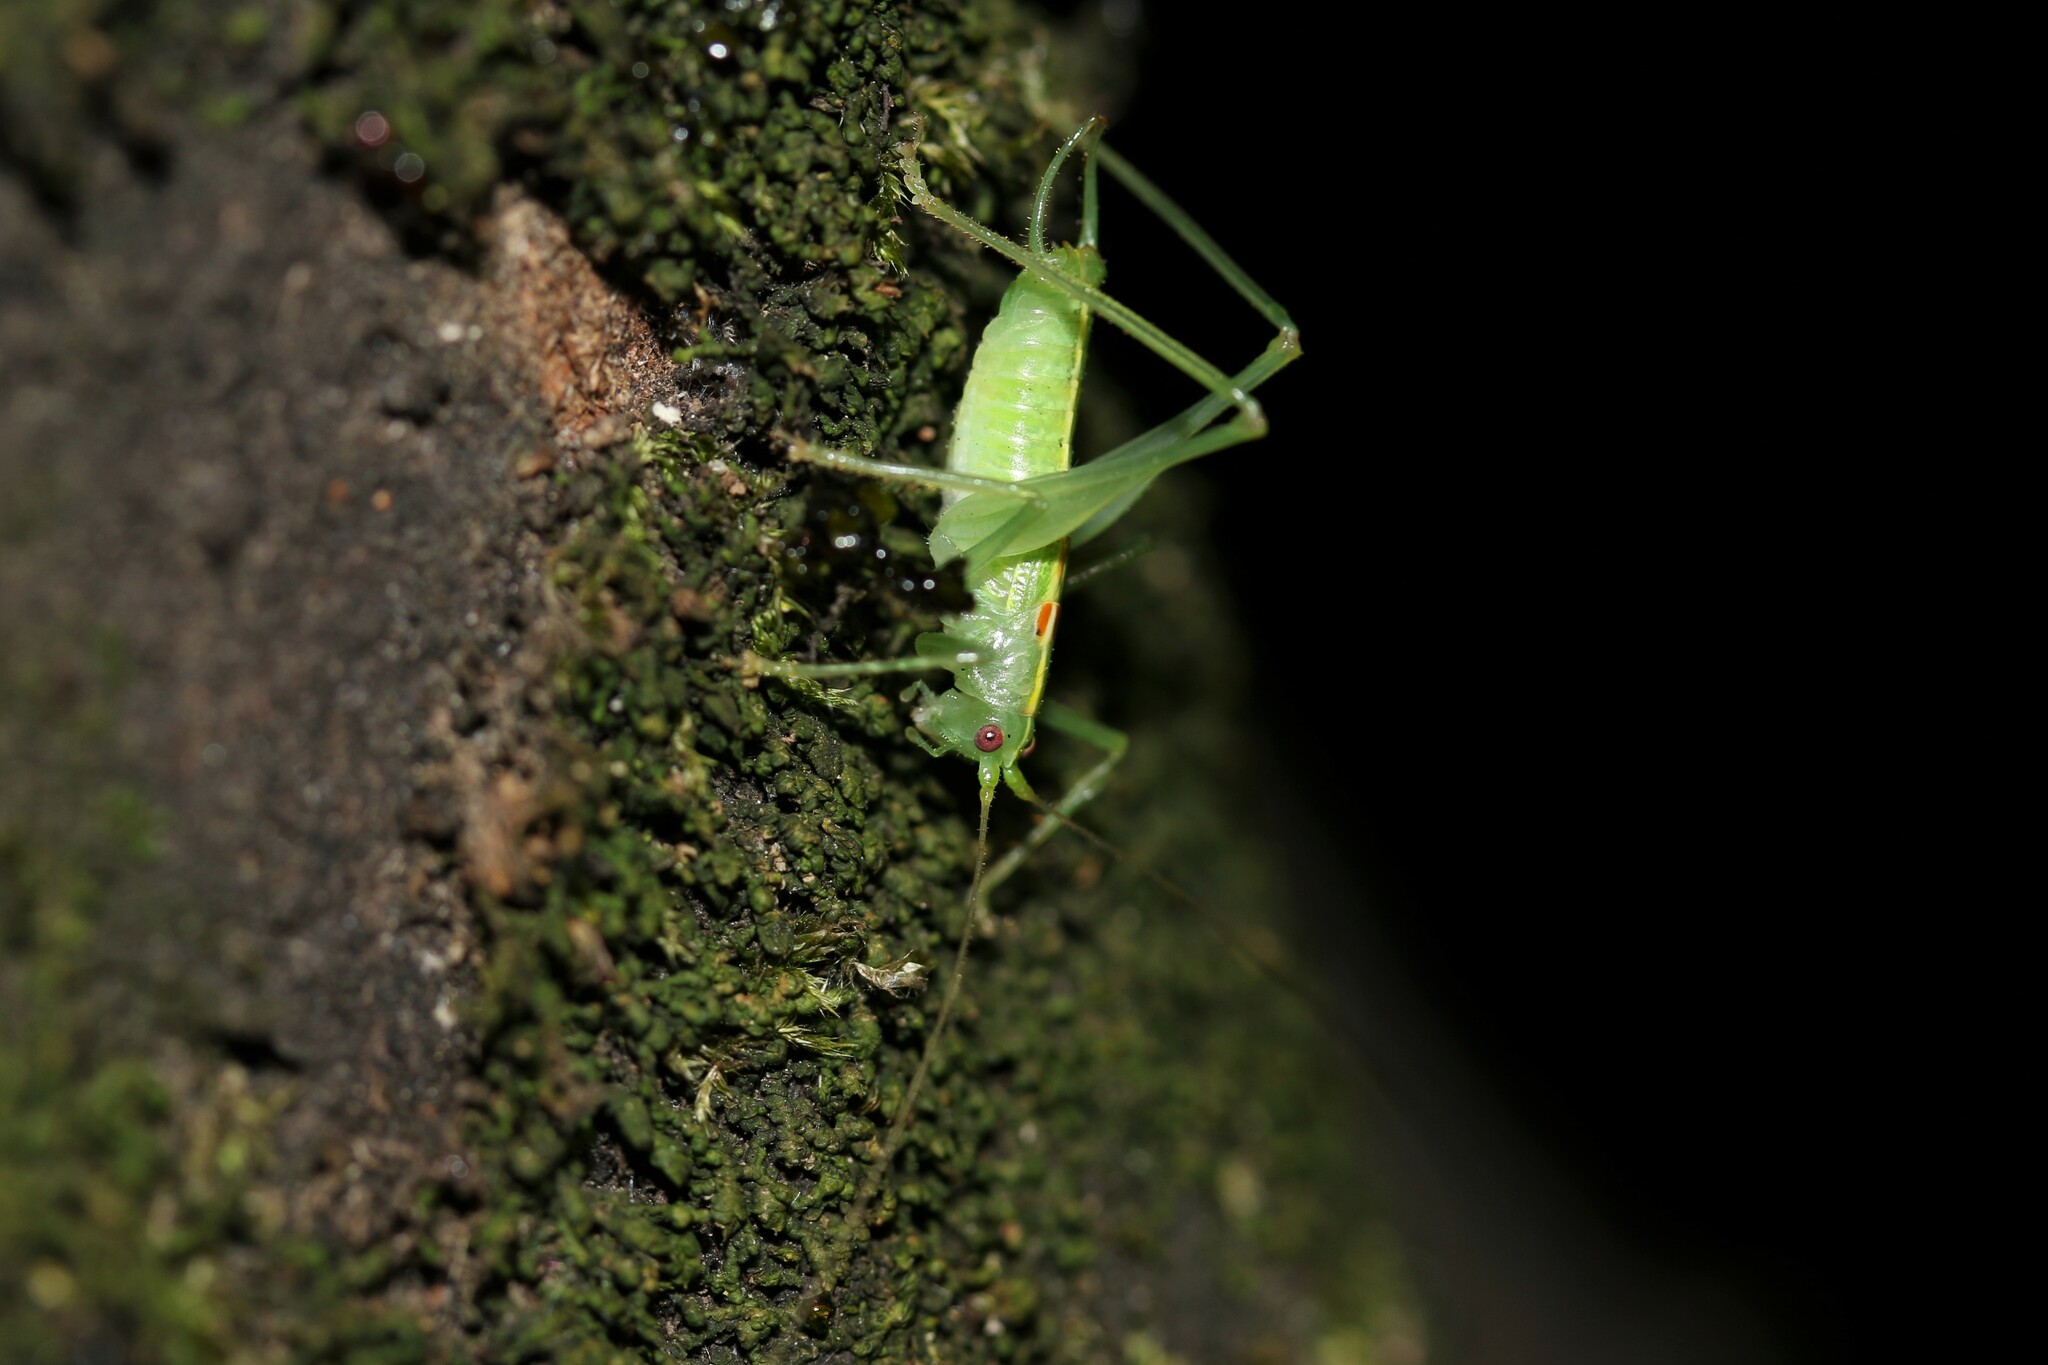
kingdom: Animalia
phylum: Arthropoda
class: Insecta
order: Orthoptera
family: Tettigoniidae
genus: Meconema
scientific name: Meconema meridionale
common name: Southern oak bush-cricket
